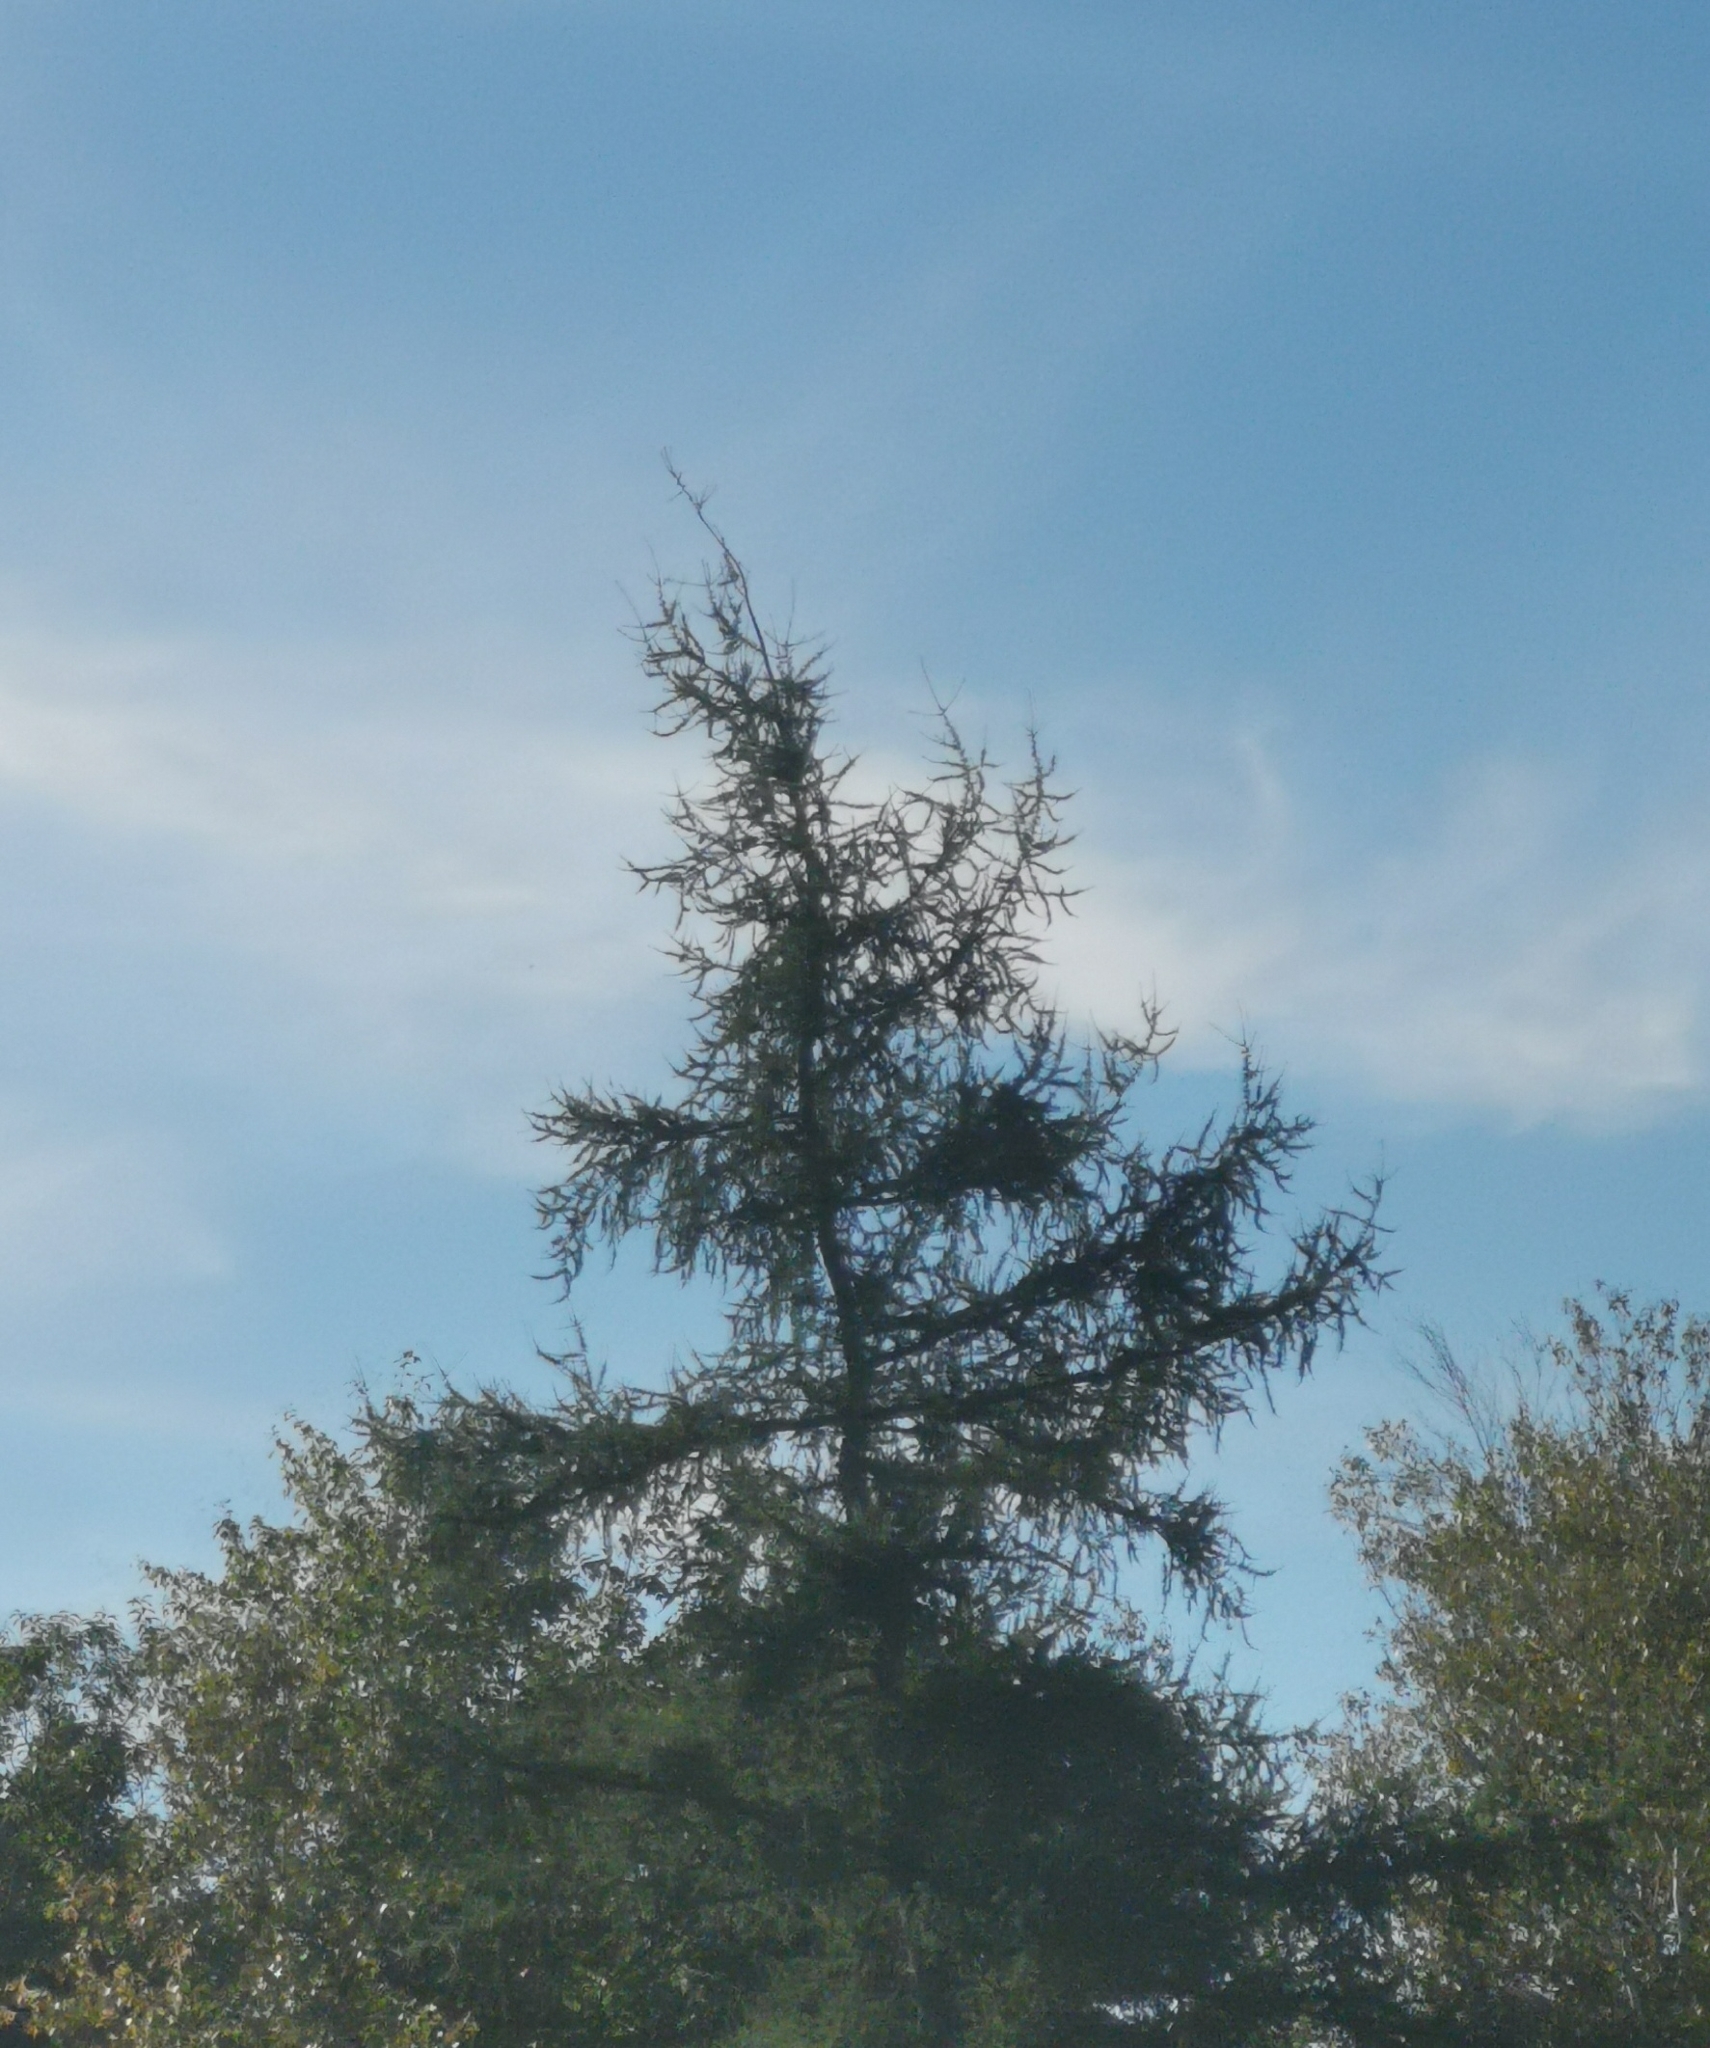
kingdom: Plantae
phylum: Tracheophyta
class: Pinopsida
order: Pinales
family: Pinaceae
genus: Larix
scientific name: Larix laricina
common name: American larch
